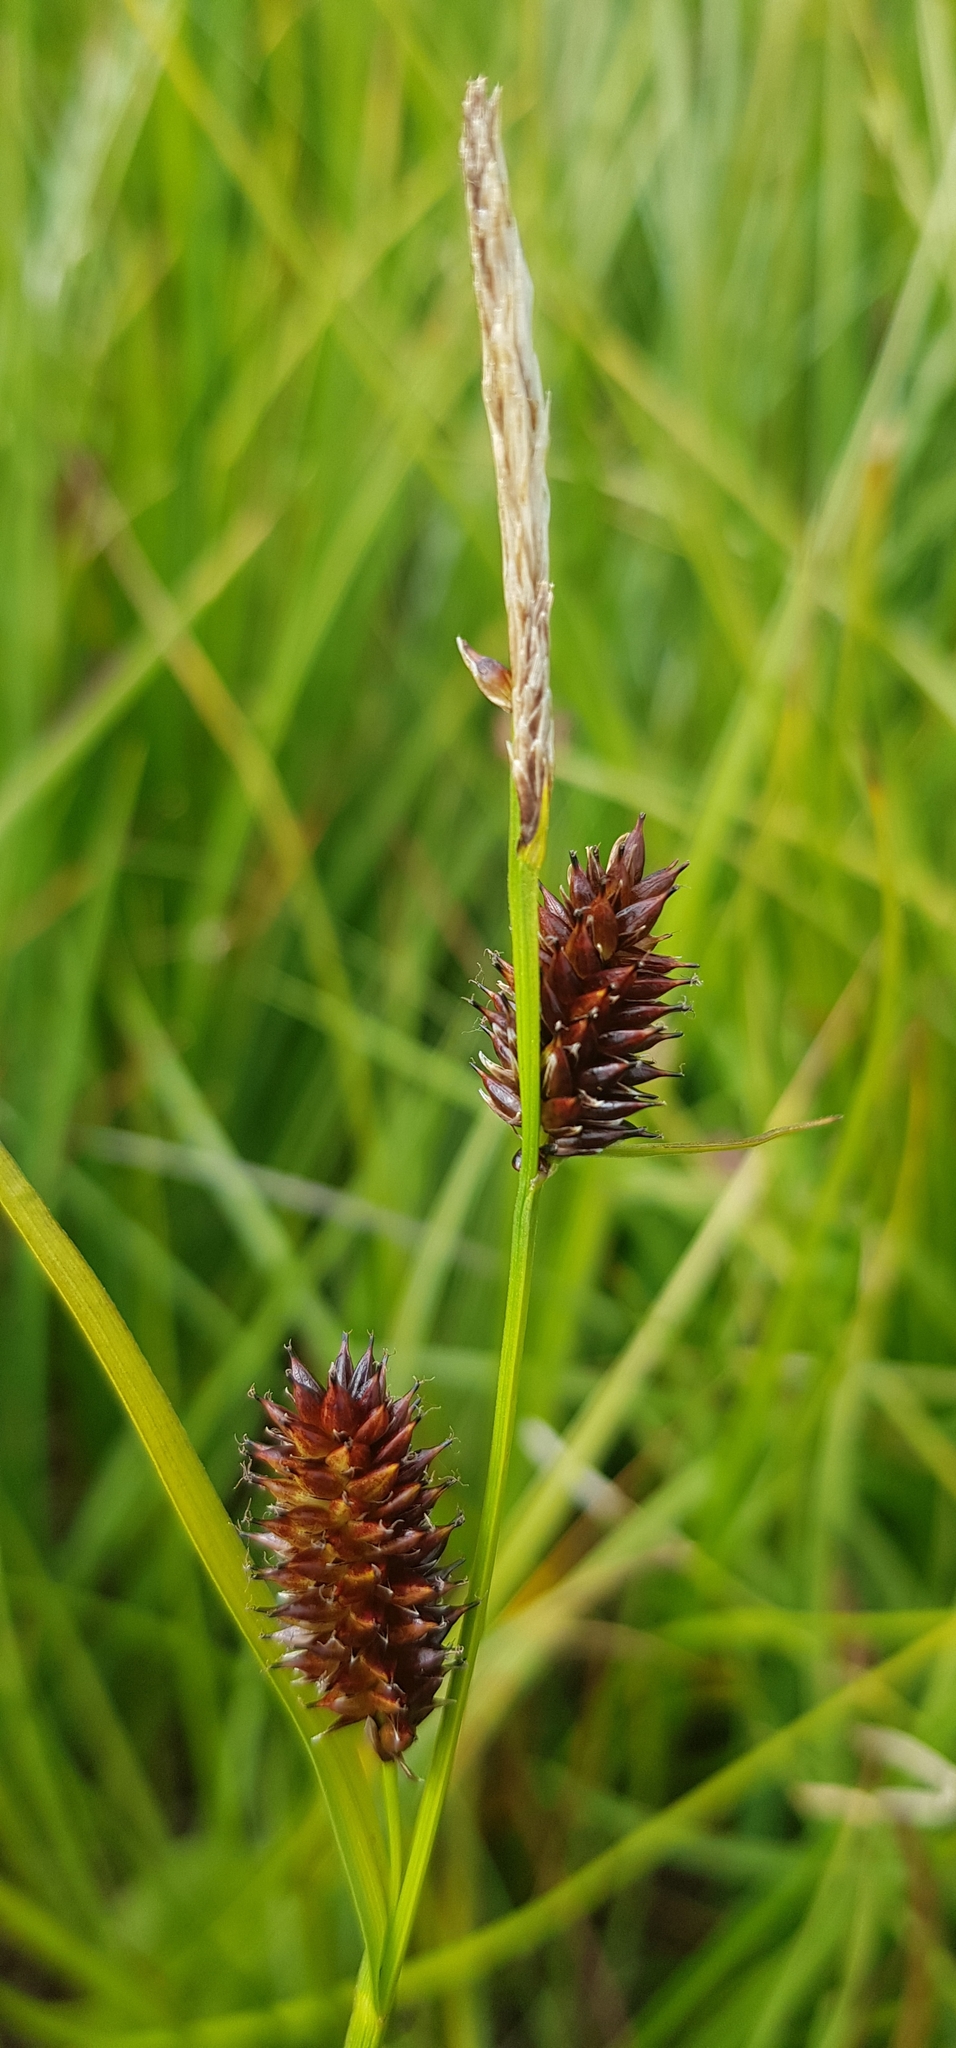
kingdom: Plantae
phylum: Tracheophyta
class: Liliopsida
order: Poales
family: Cyperaceae
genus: Carex
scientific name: Carex pamirensis
